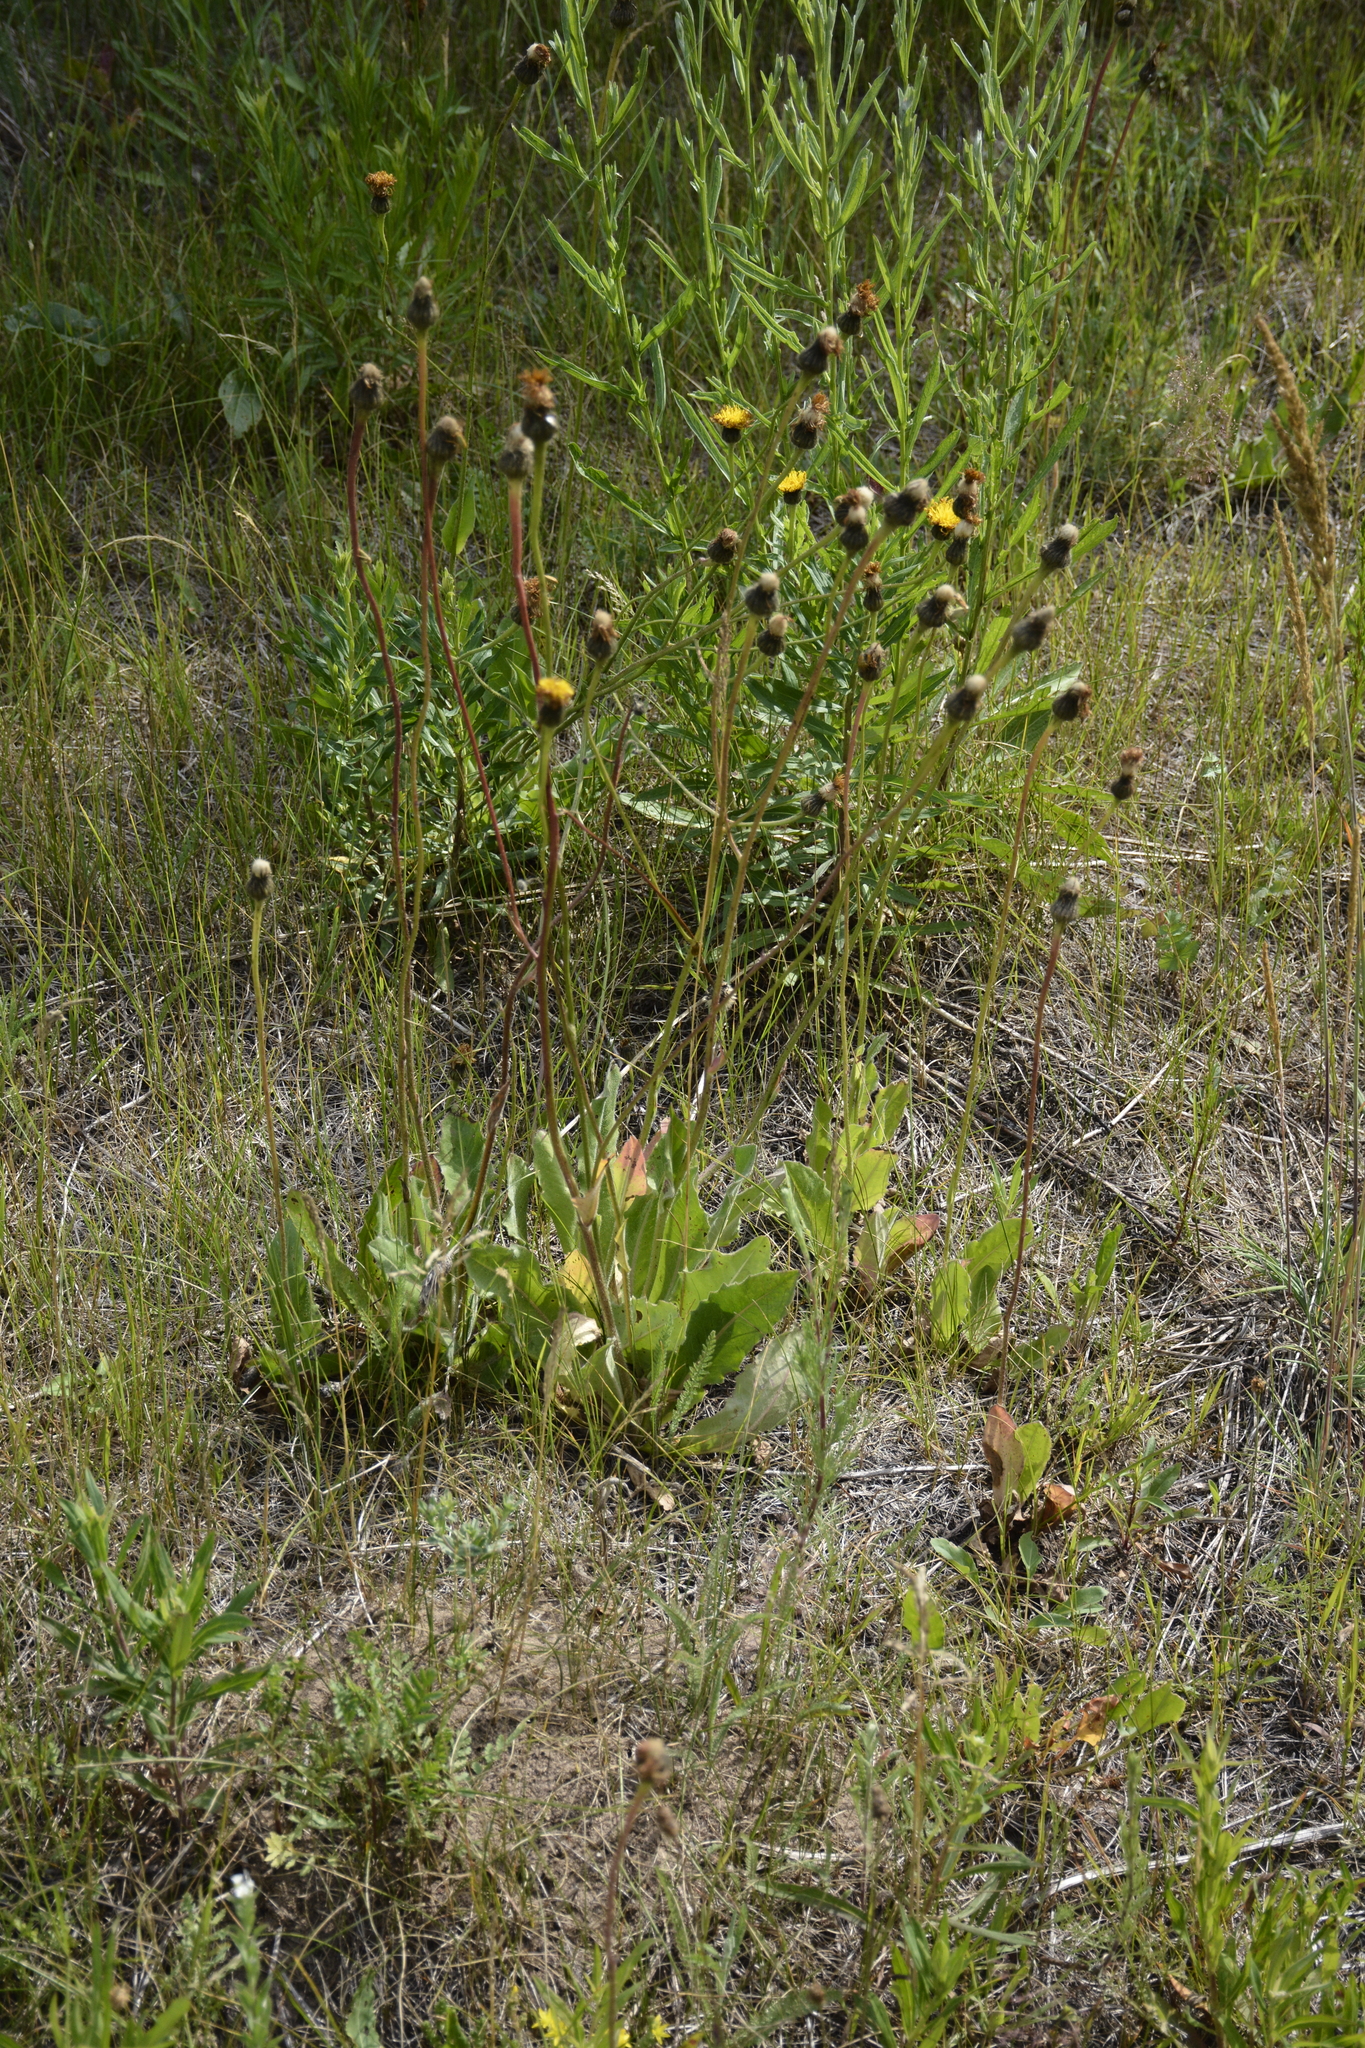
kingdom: Plantae
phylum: Tracheophyta
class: Magnoliopsida
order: Asterales
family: Asteraceae
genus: Trommsdorffia
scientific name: Trommsdorffia maculata
